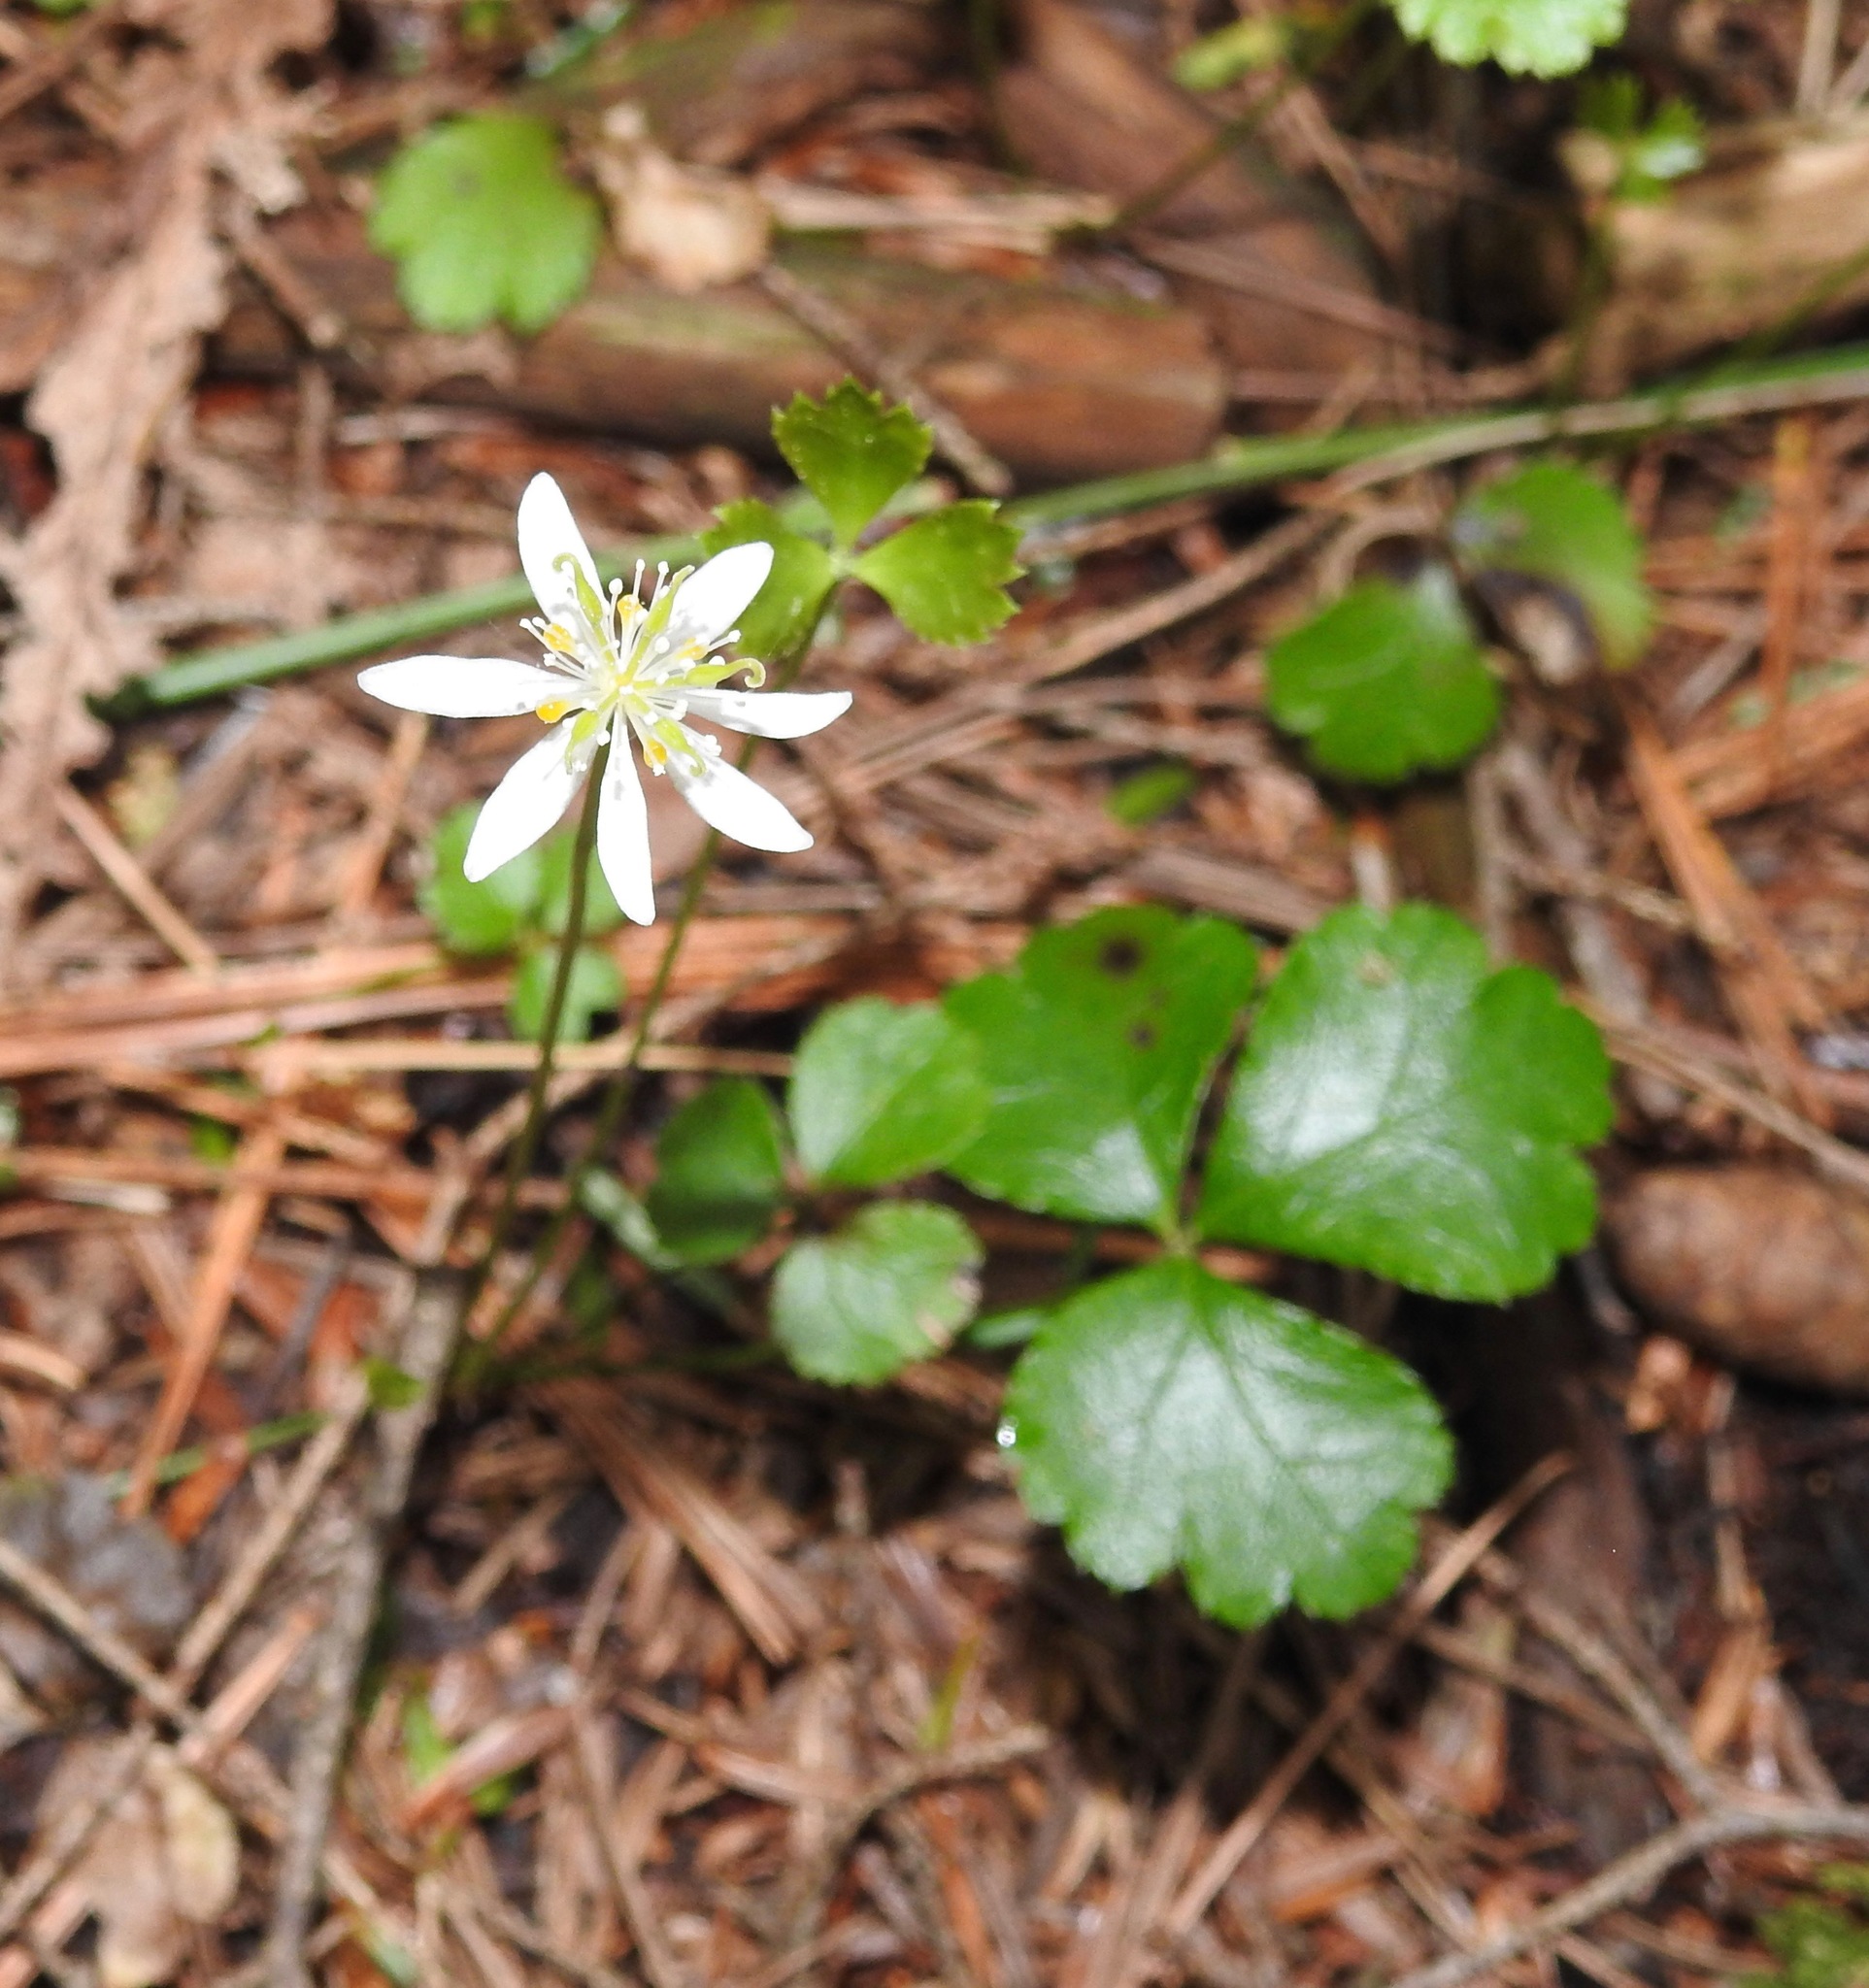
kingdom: Plantae
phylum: Tracheophyta
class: Magnoliopsida
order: Ranunculales
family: Ranunculaceae
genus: Coptis
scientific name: Coptis trifolia
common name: Canker-root
